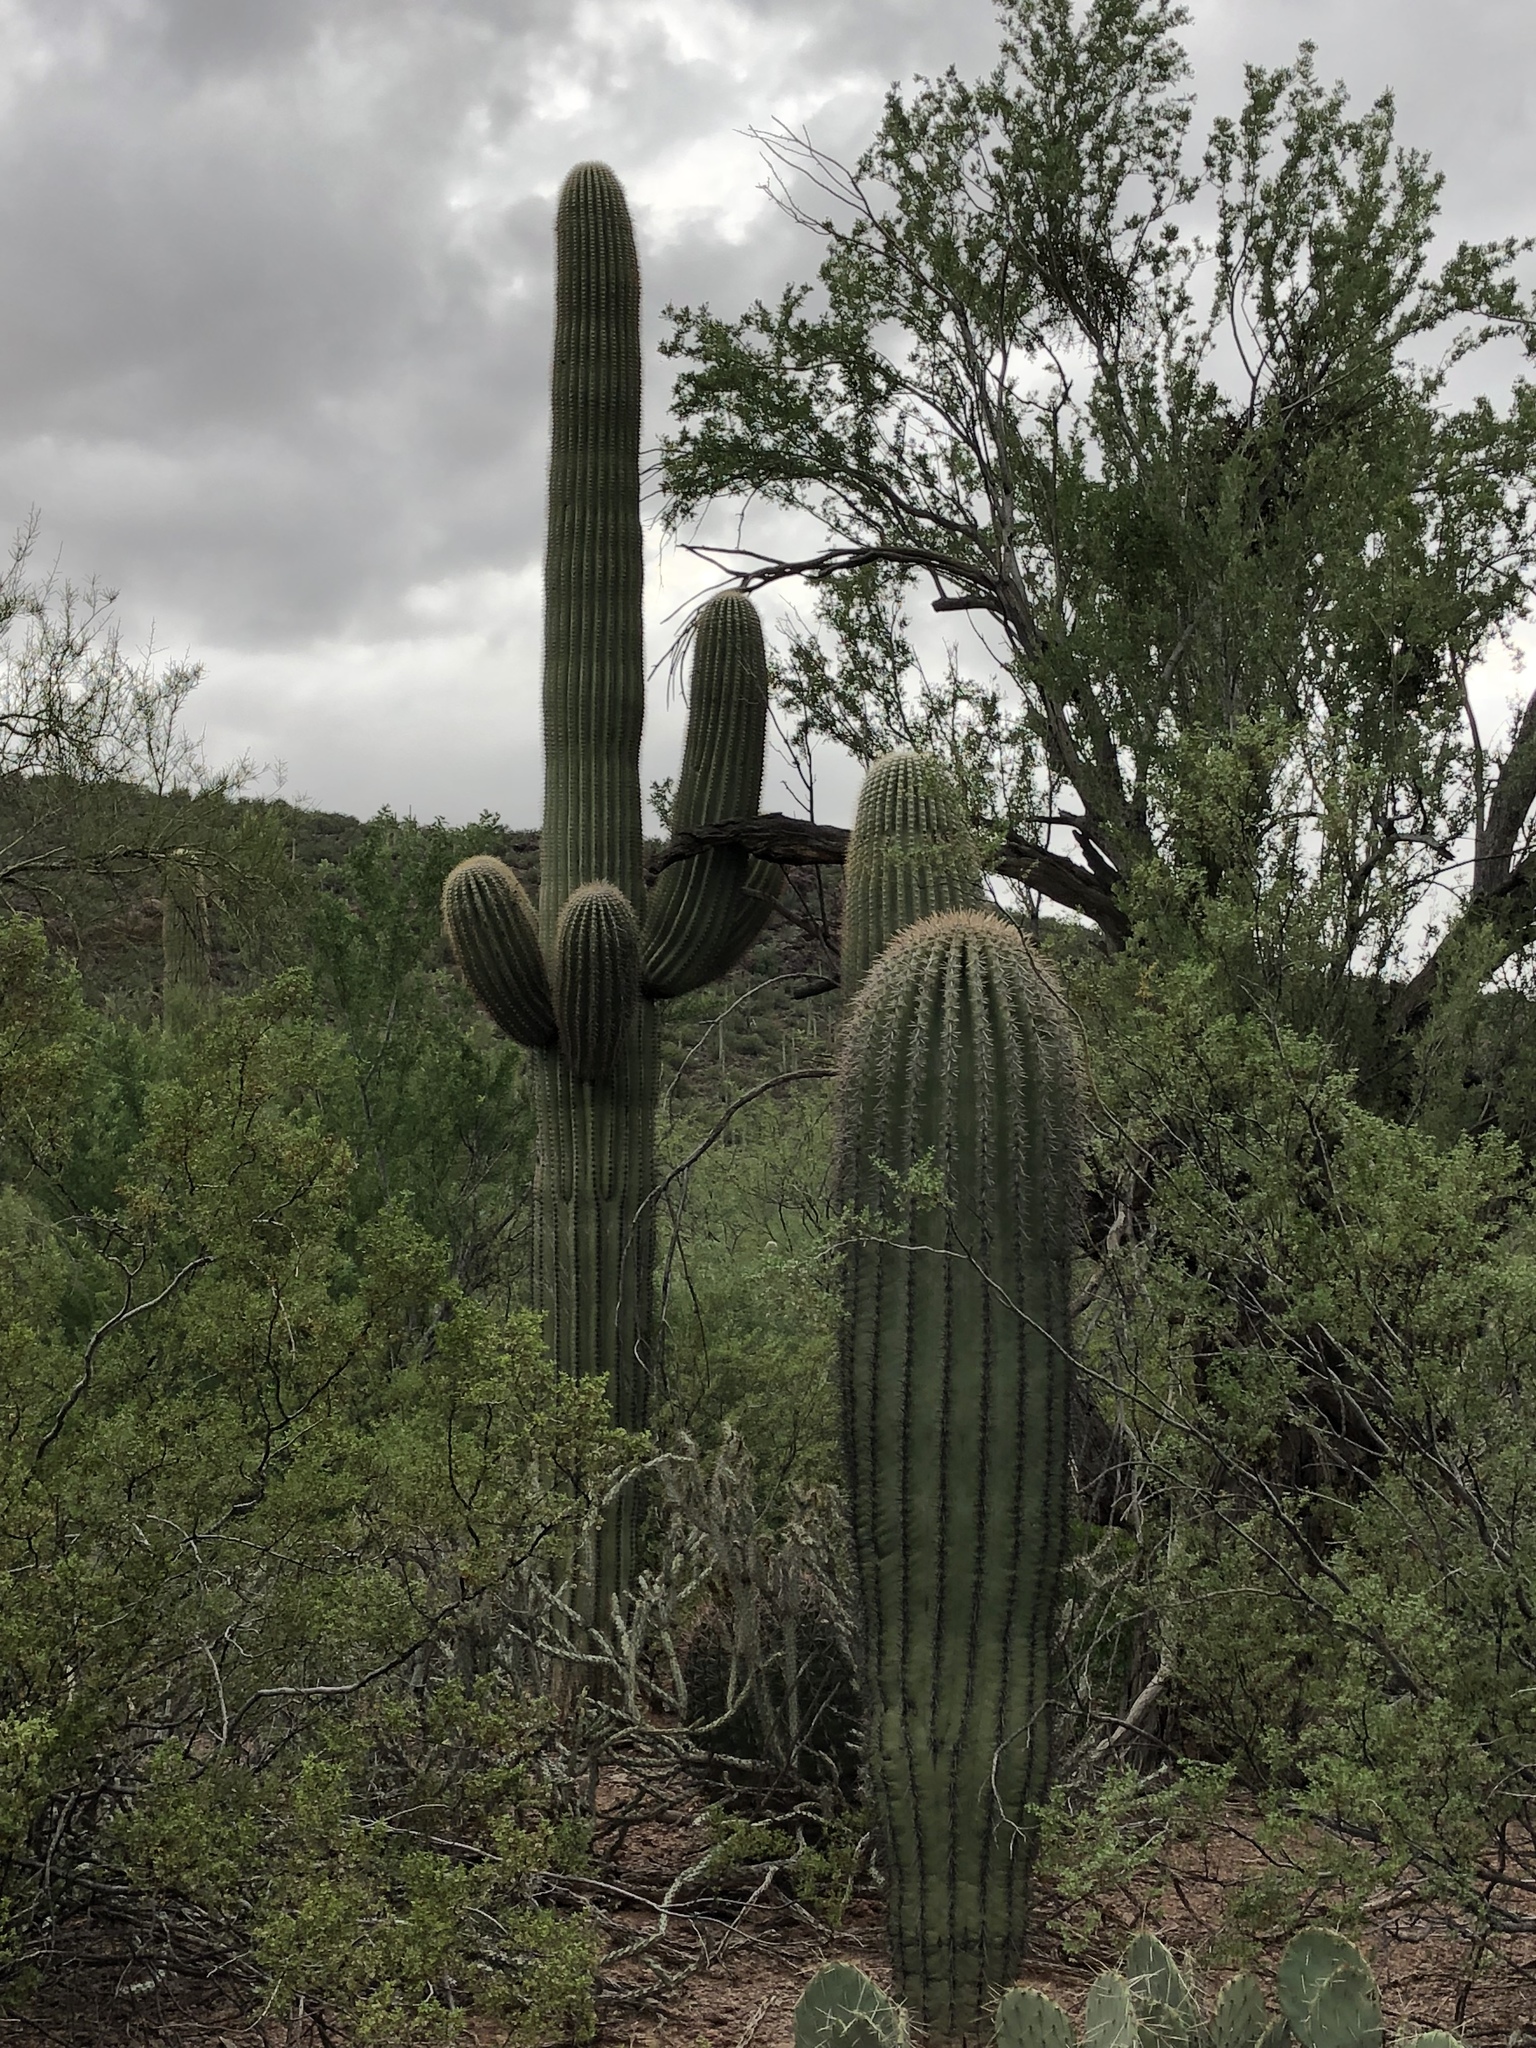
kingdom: Plantae
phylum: Tracheophyta
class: Magnoliopsida
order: Caryophyllales
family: Cactaceae
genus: Carnegiea
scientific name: Carnegiea gigantea
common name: Saguaro
